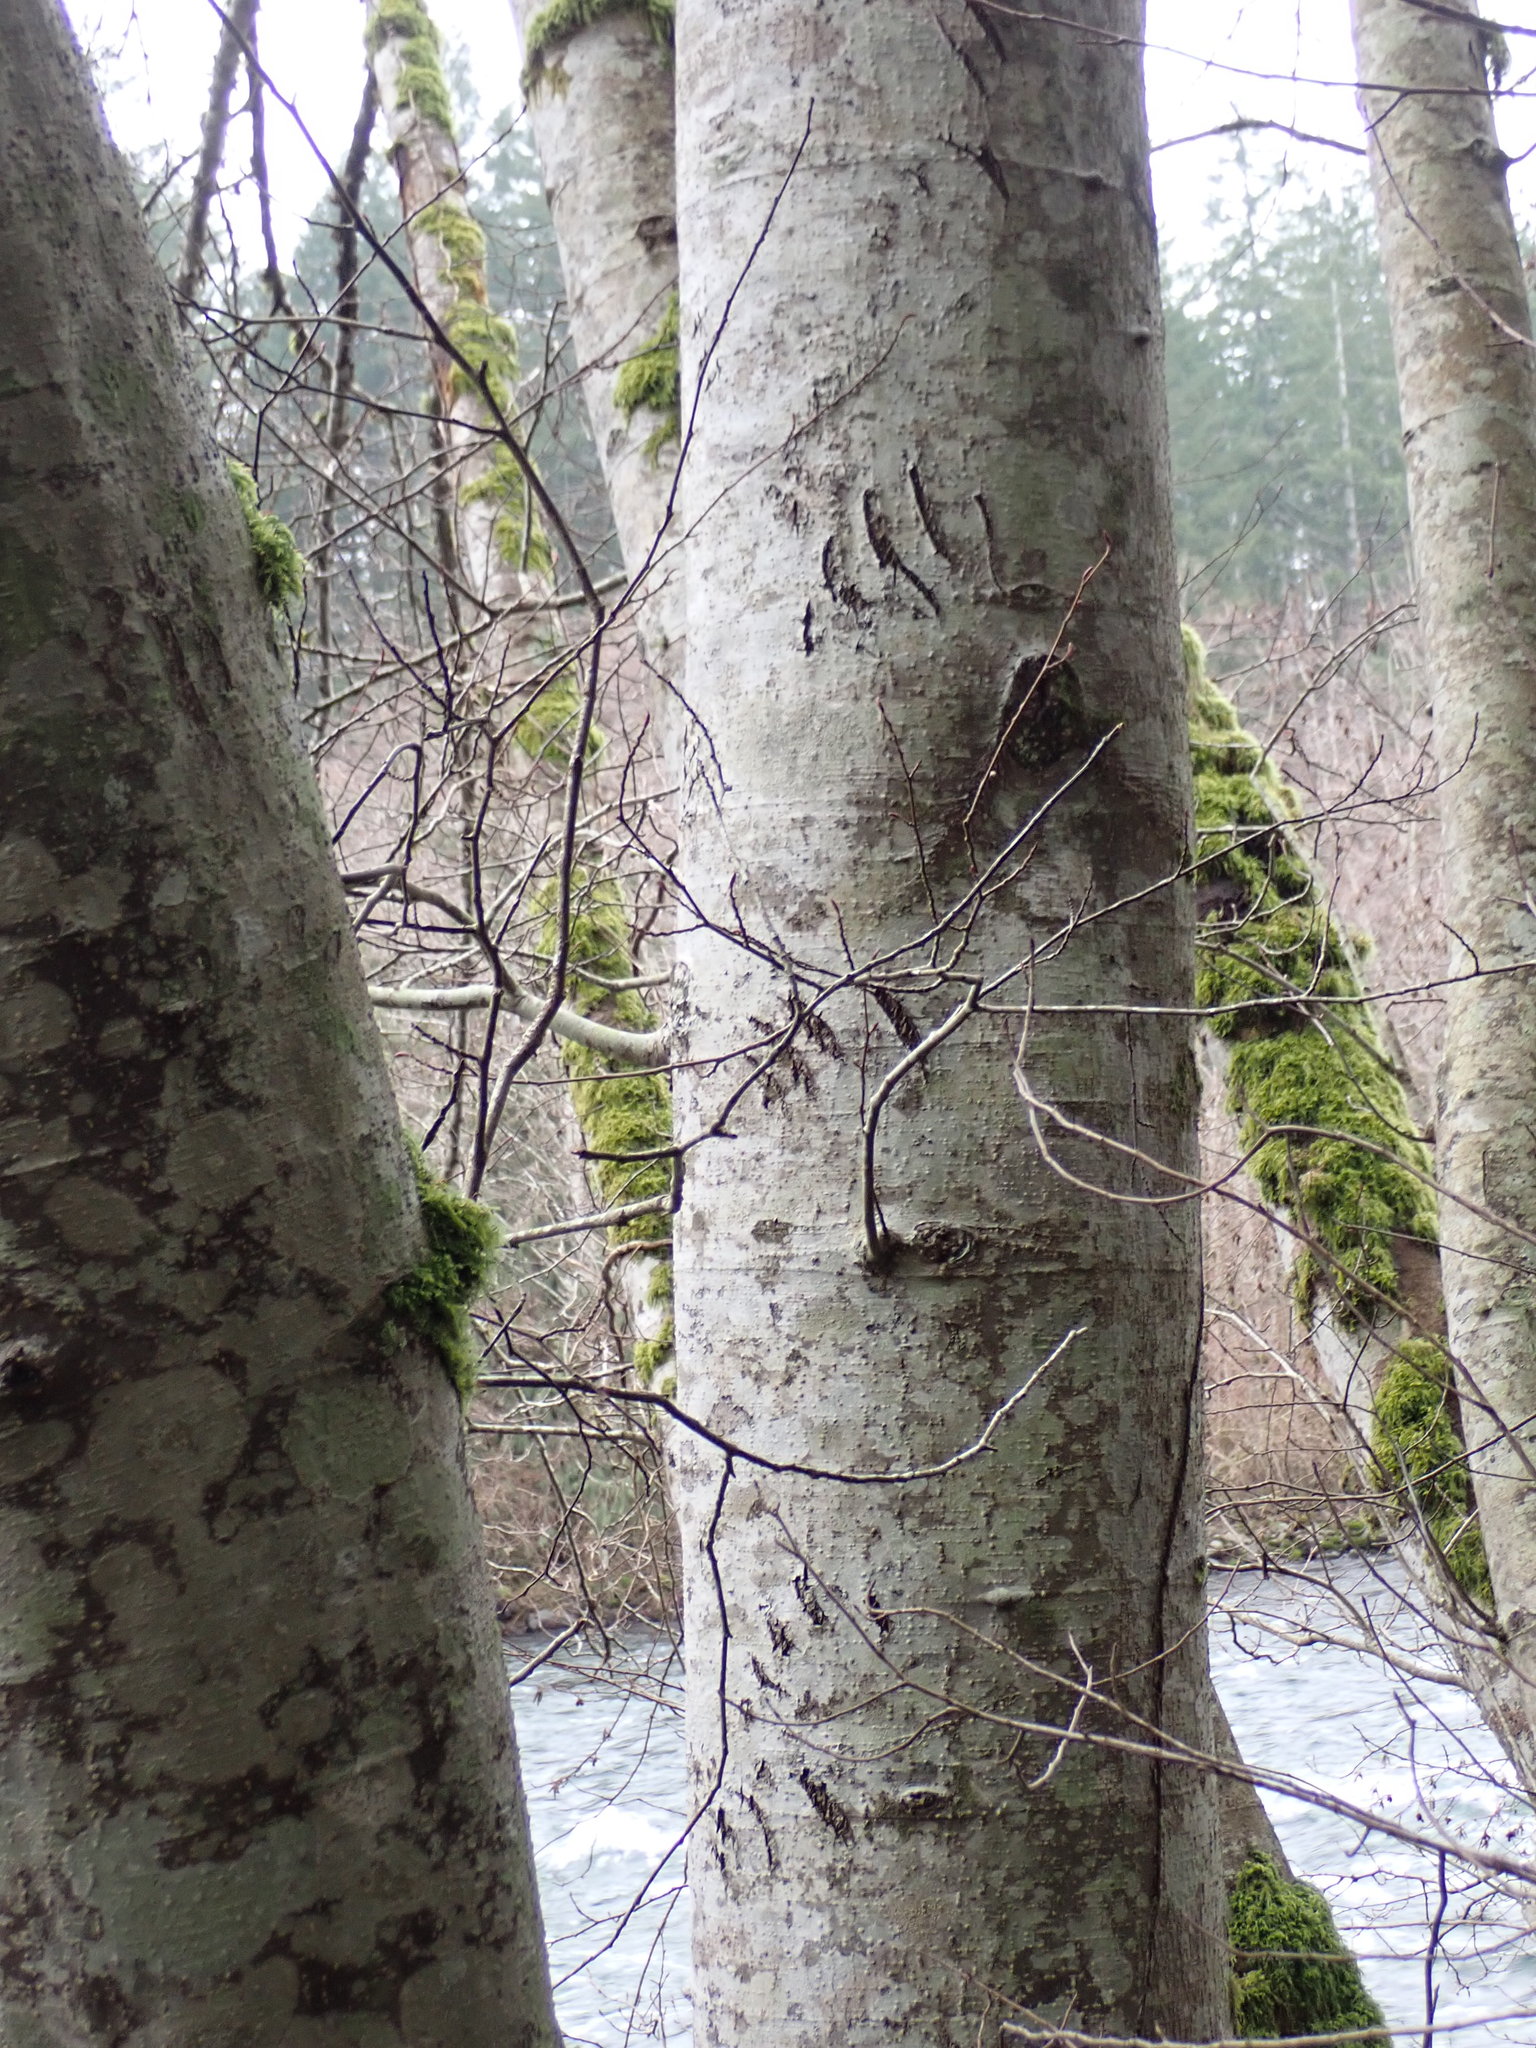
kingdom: Animalia
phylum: Chordata
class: Mammalia
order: Carnivora
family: Ursidae
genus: Ursus
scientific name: Ursus americanus
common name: American black bear
